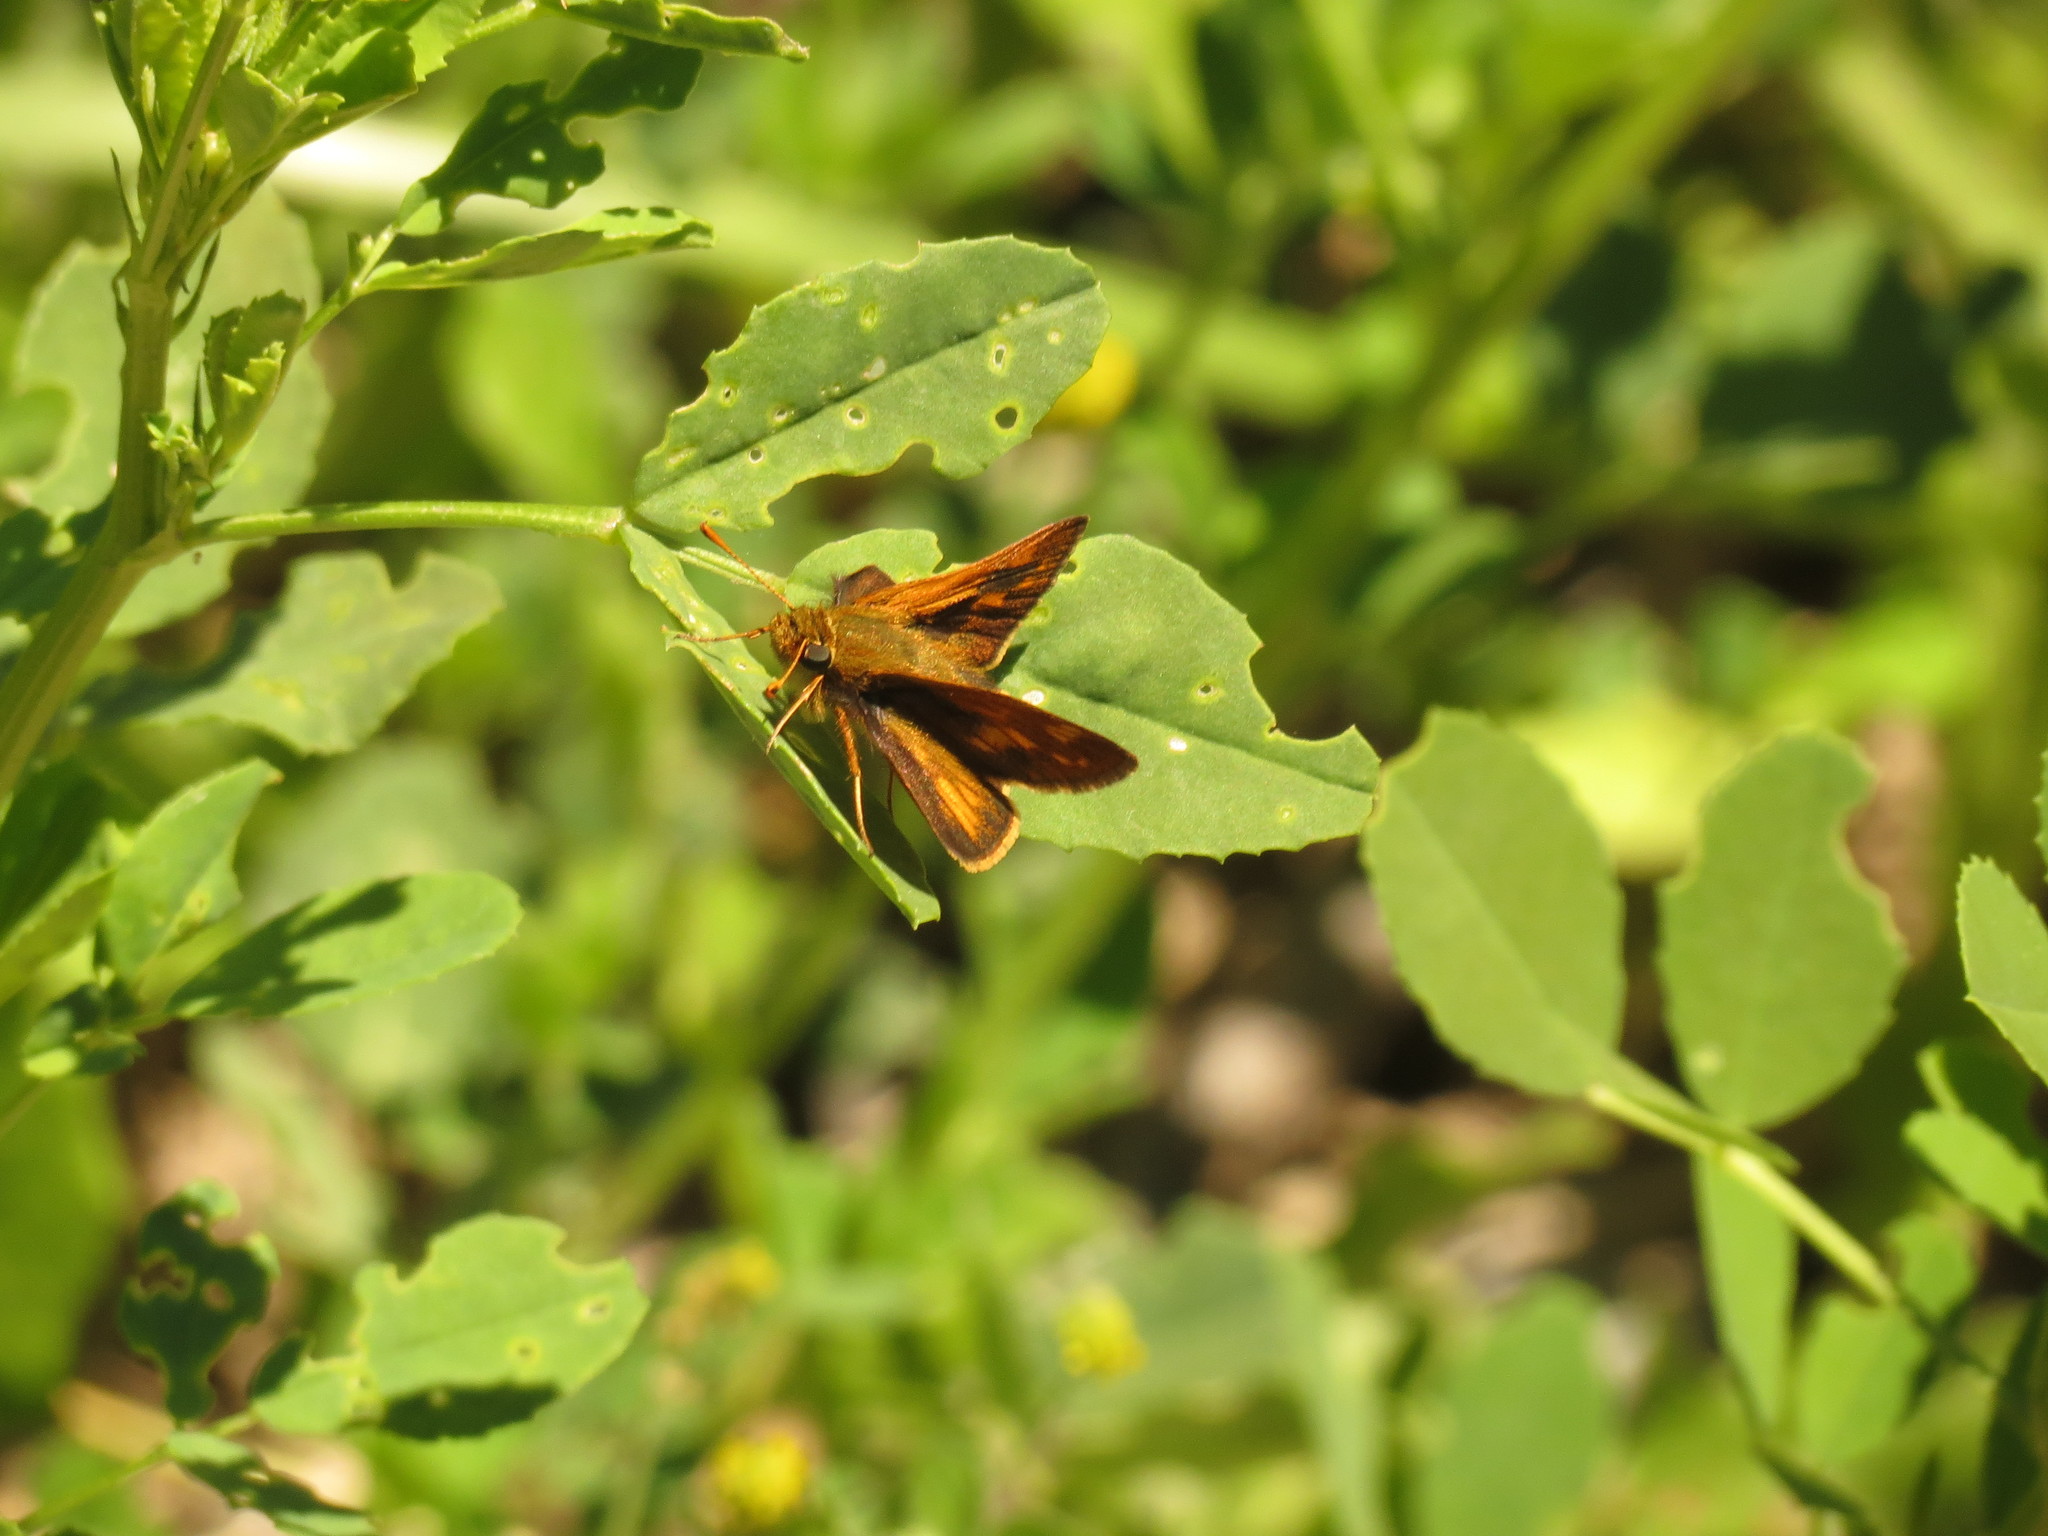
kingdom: Animalia
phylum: Arthropoda
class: Insecta
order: Lepidoptera
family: Hesperiidae
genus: Polites
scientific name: Polites coras
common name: Peck's skipper
